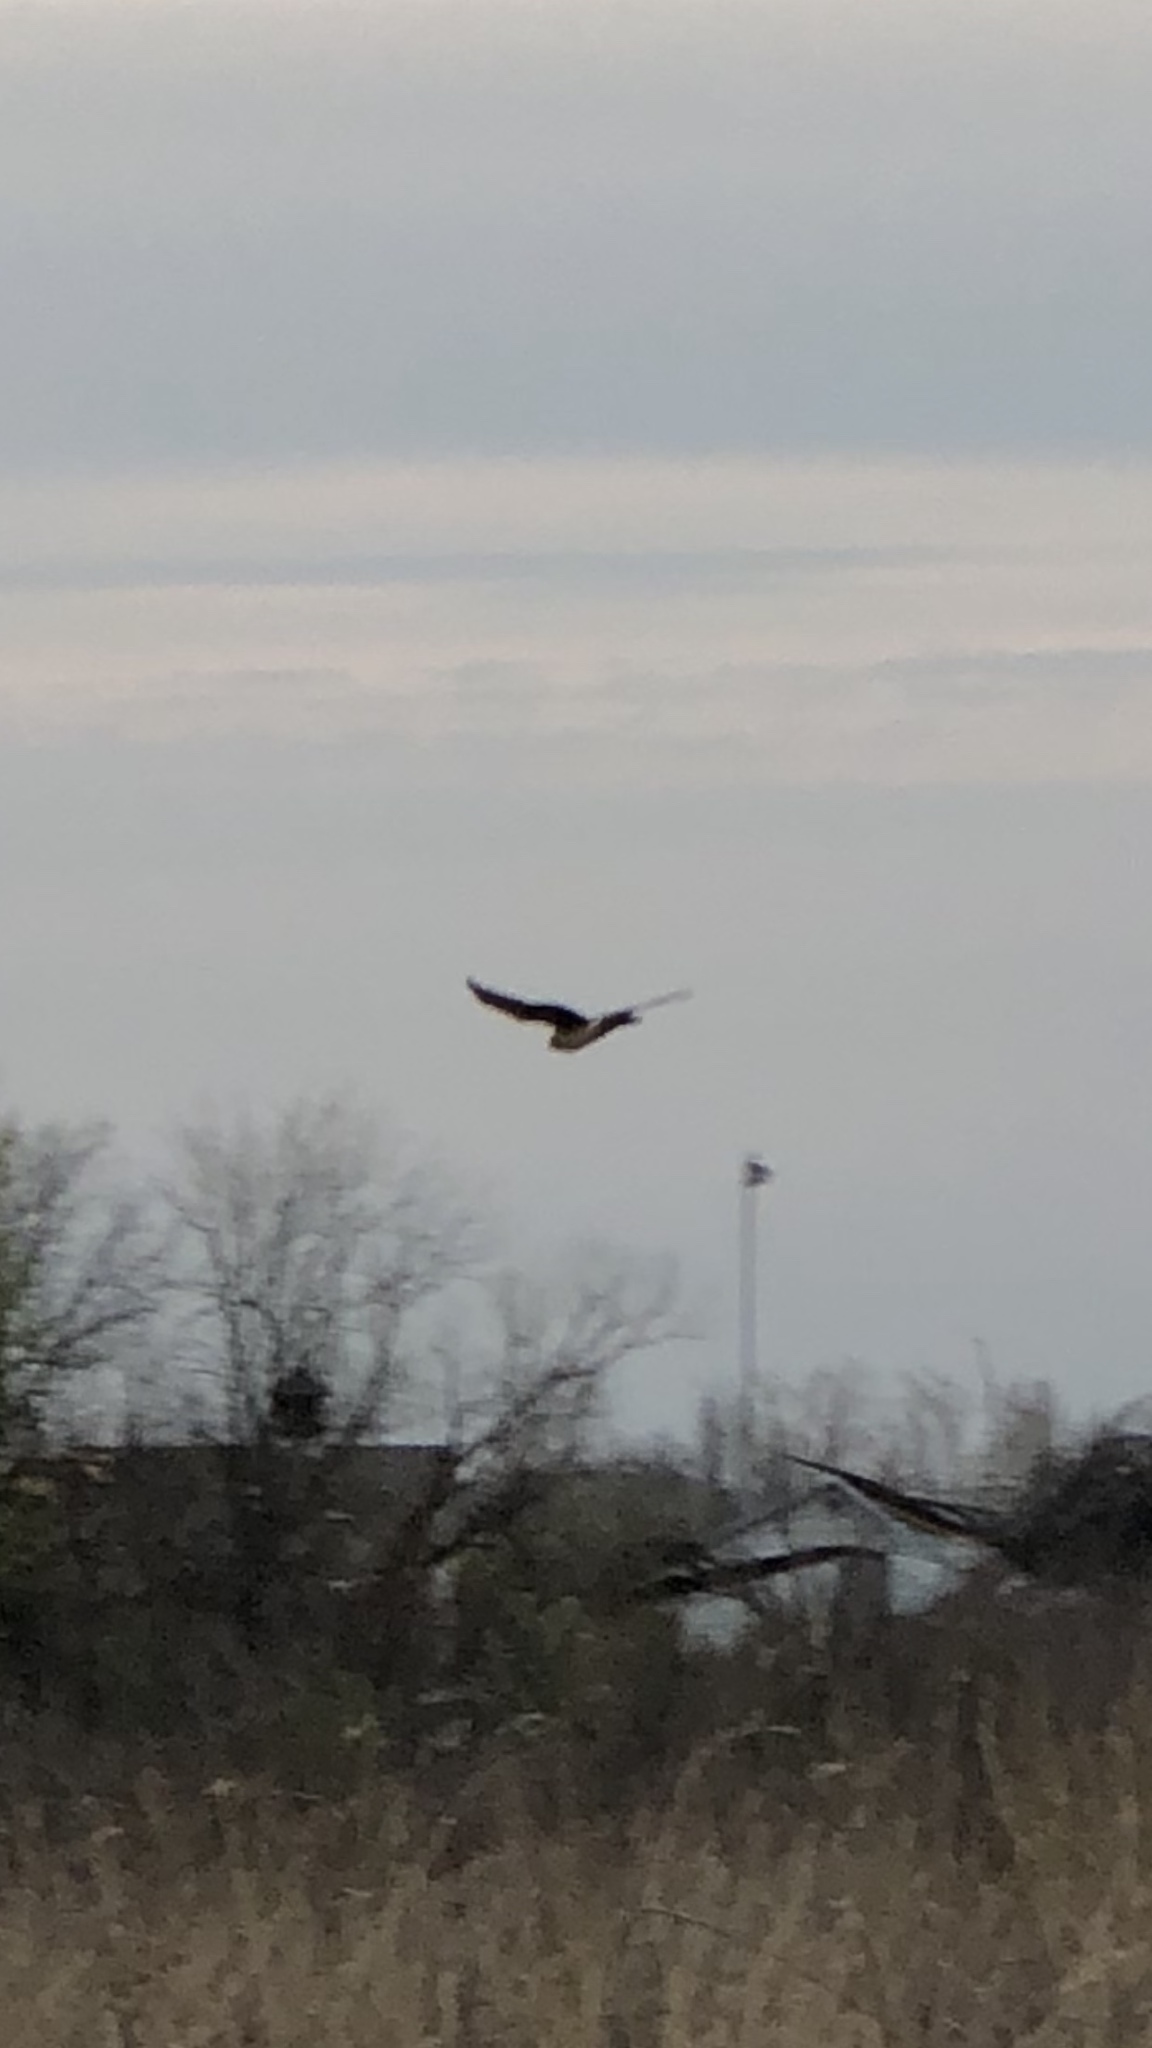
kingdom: Animalia
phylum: Chordata
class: Aves
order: Accipitriformes
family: Accipitridae
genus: Circus
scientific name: Circus cyaneus
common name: Hen harrier
